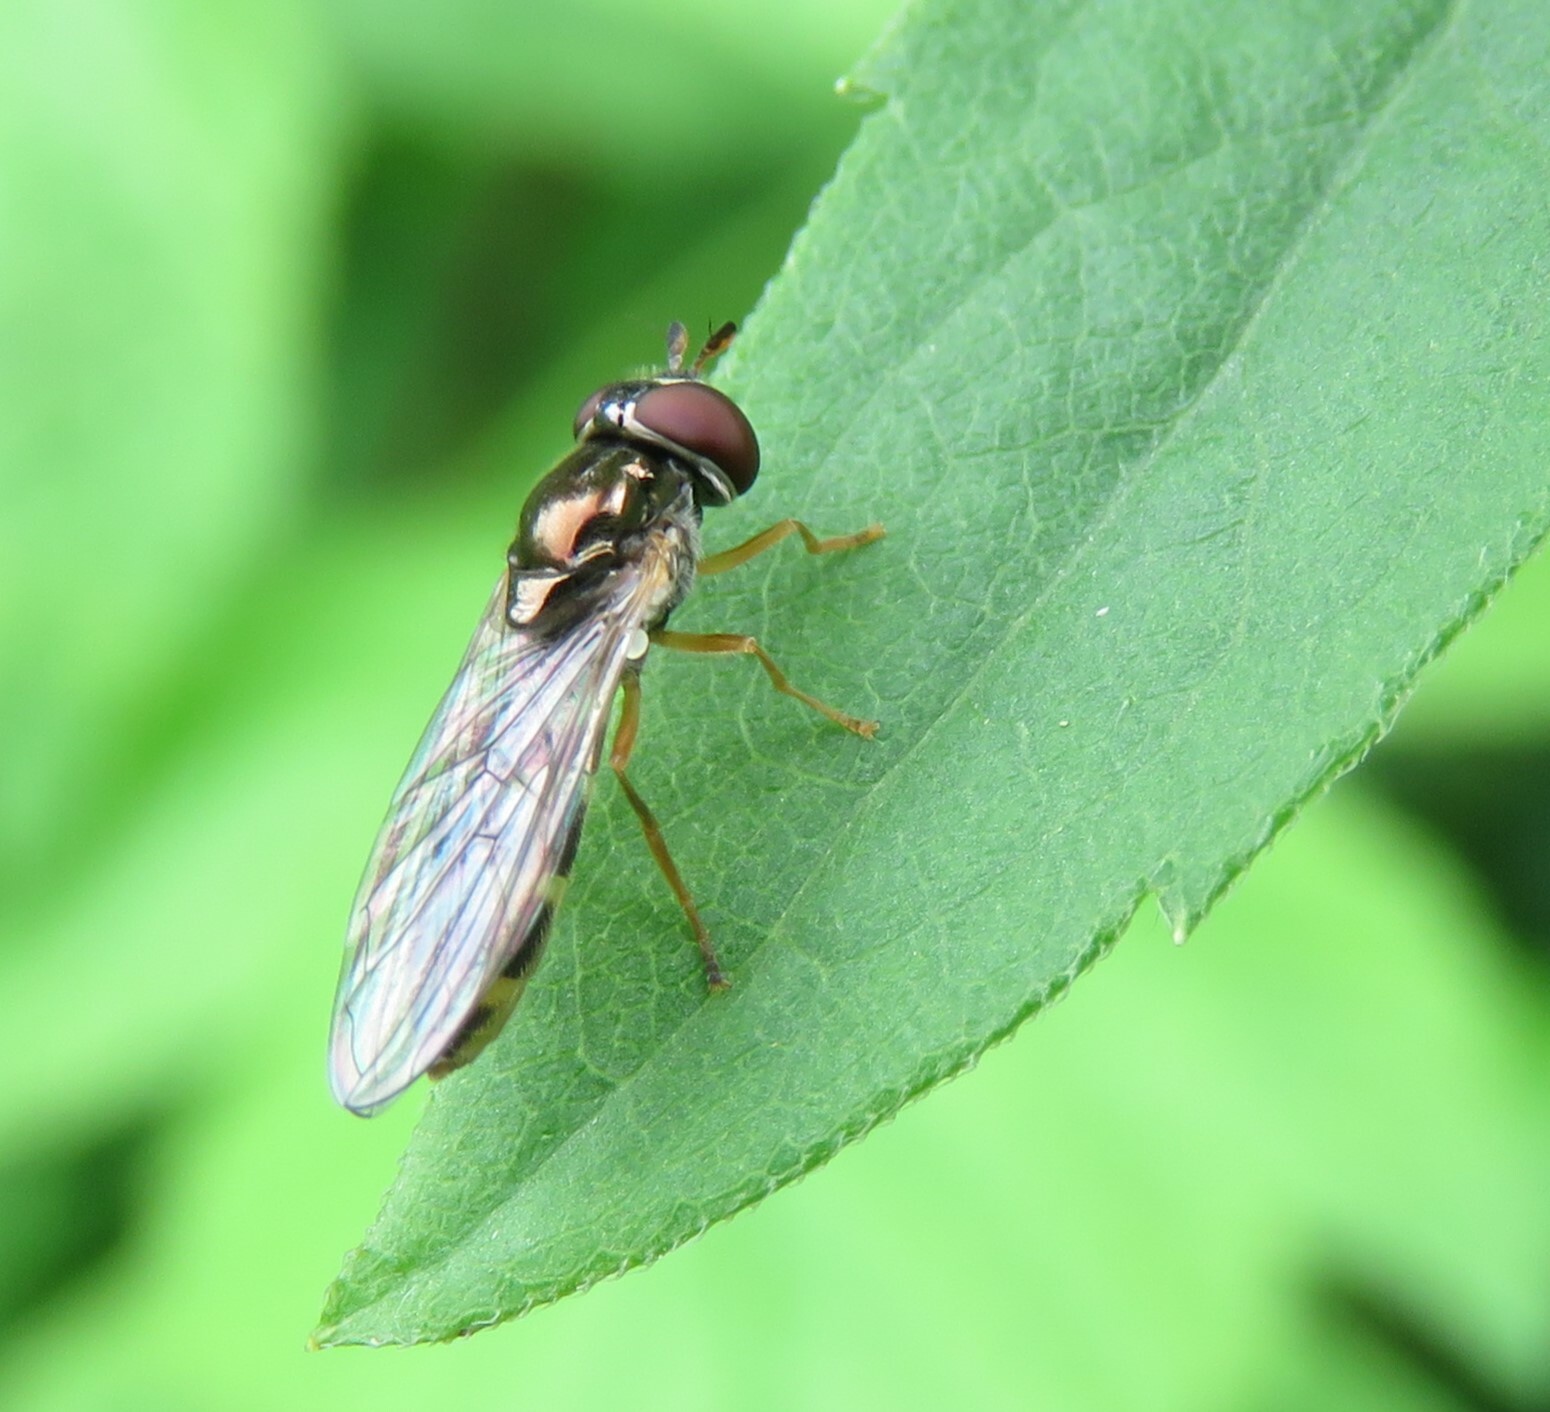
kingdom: Animalia
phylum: Arthropoda
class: Insecta
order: Diptera
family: Syrphidae
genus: Melanostoma
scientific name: Melanostoma mellina
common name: Hover fly
